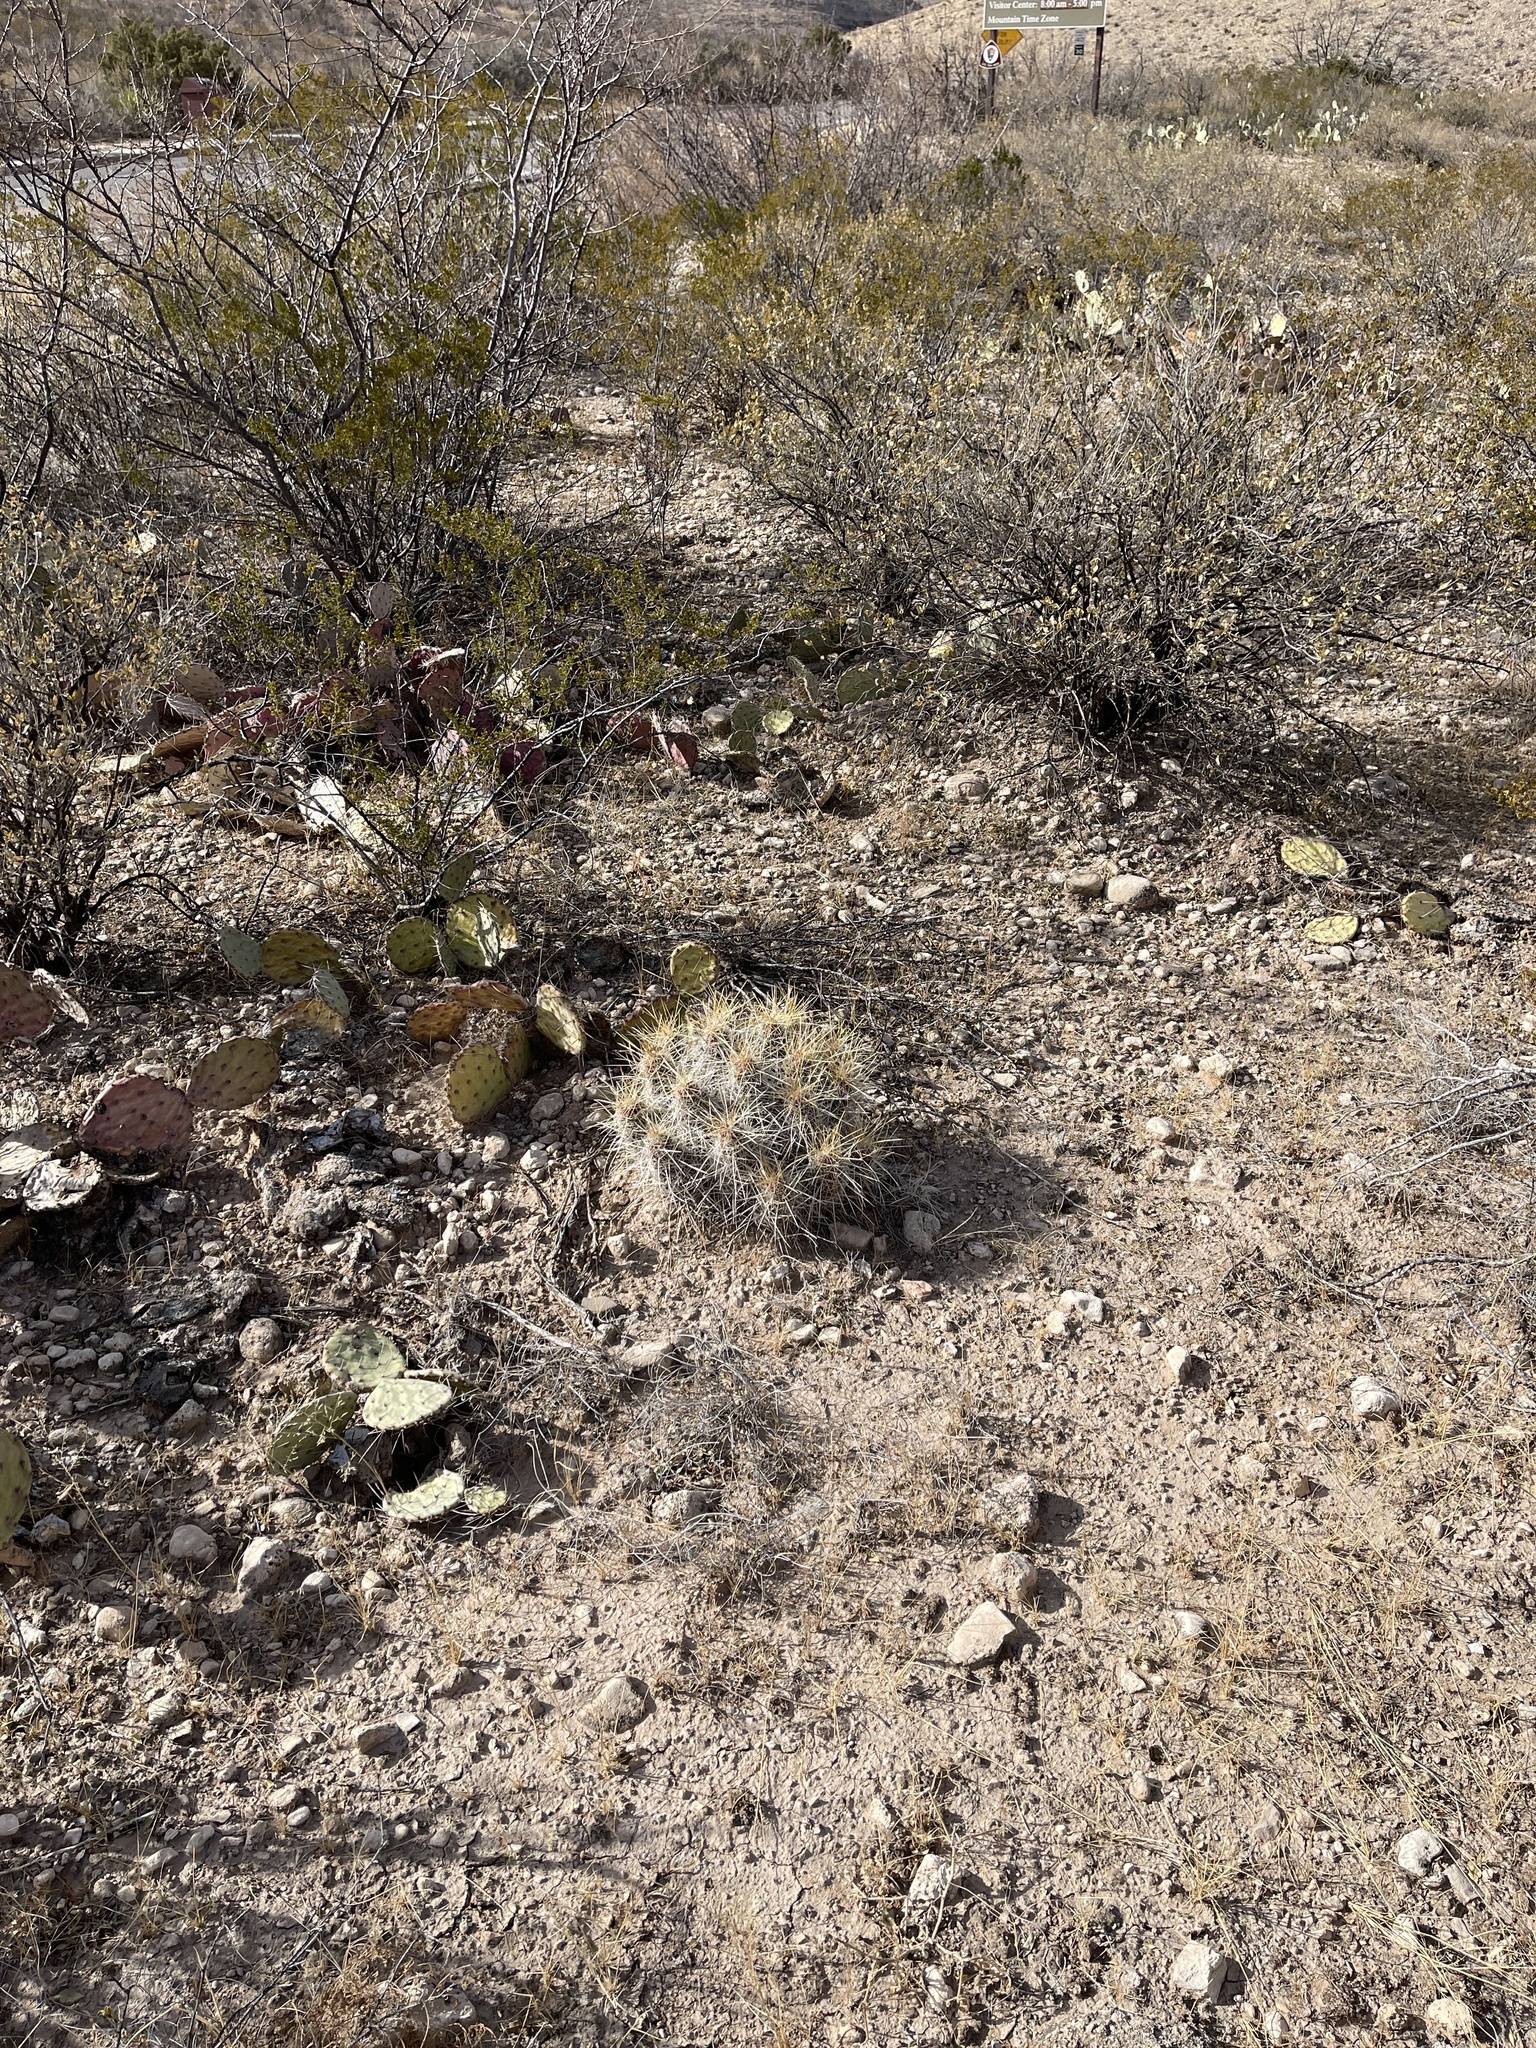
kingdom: Plantae
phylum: Tracheophyta
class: Magnoliopsida
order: Caryophyllales
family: Cactaceae
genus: Echinocereus
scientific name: Echinocereus stramineus
